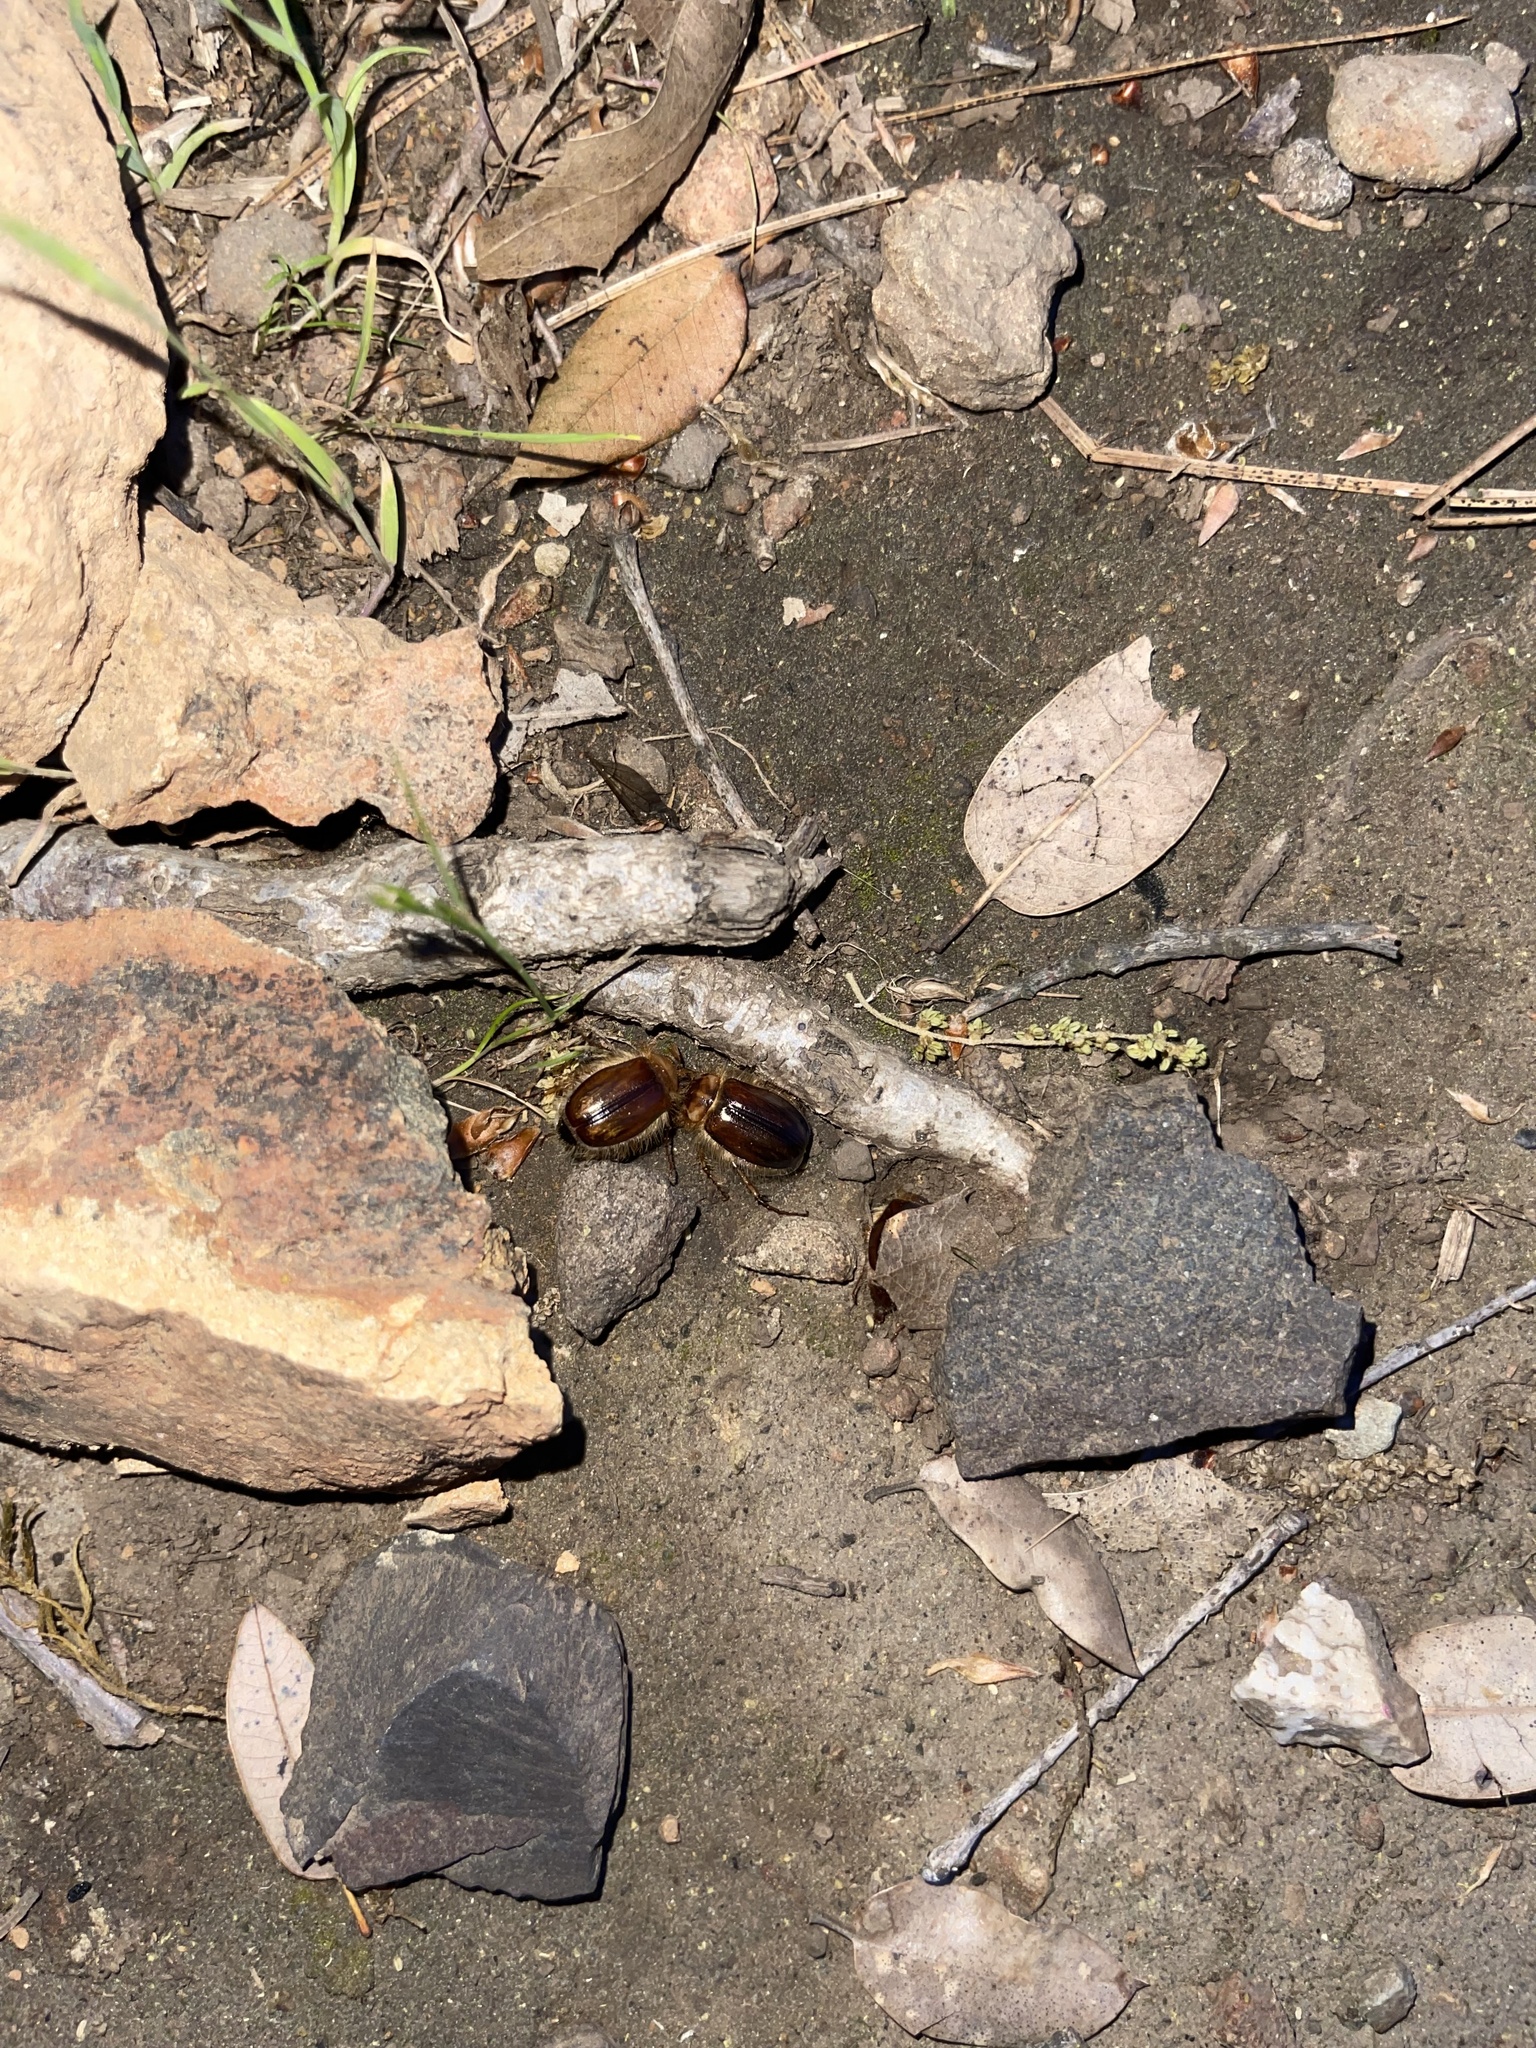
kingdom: Animalia
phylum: Arthropoda
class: Diplopoda
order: Julida
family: Paeromopodidae
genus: Paeromopus
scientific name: Paeromopus angusticeps
